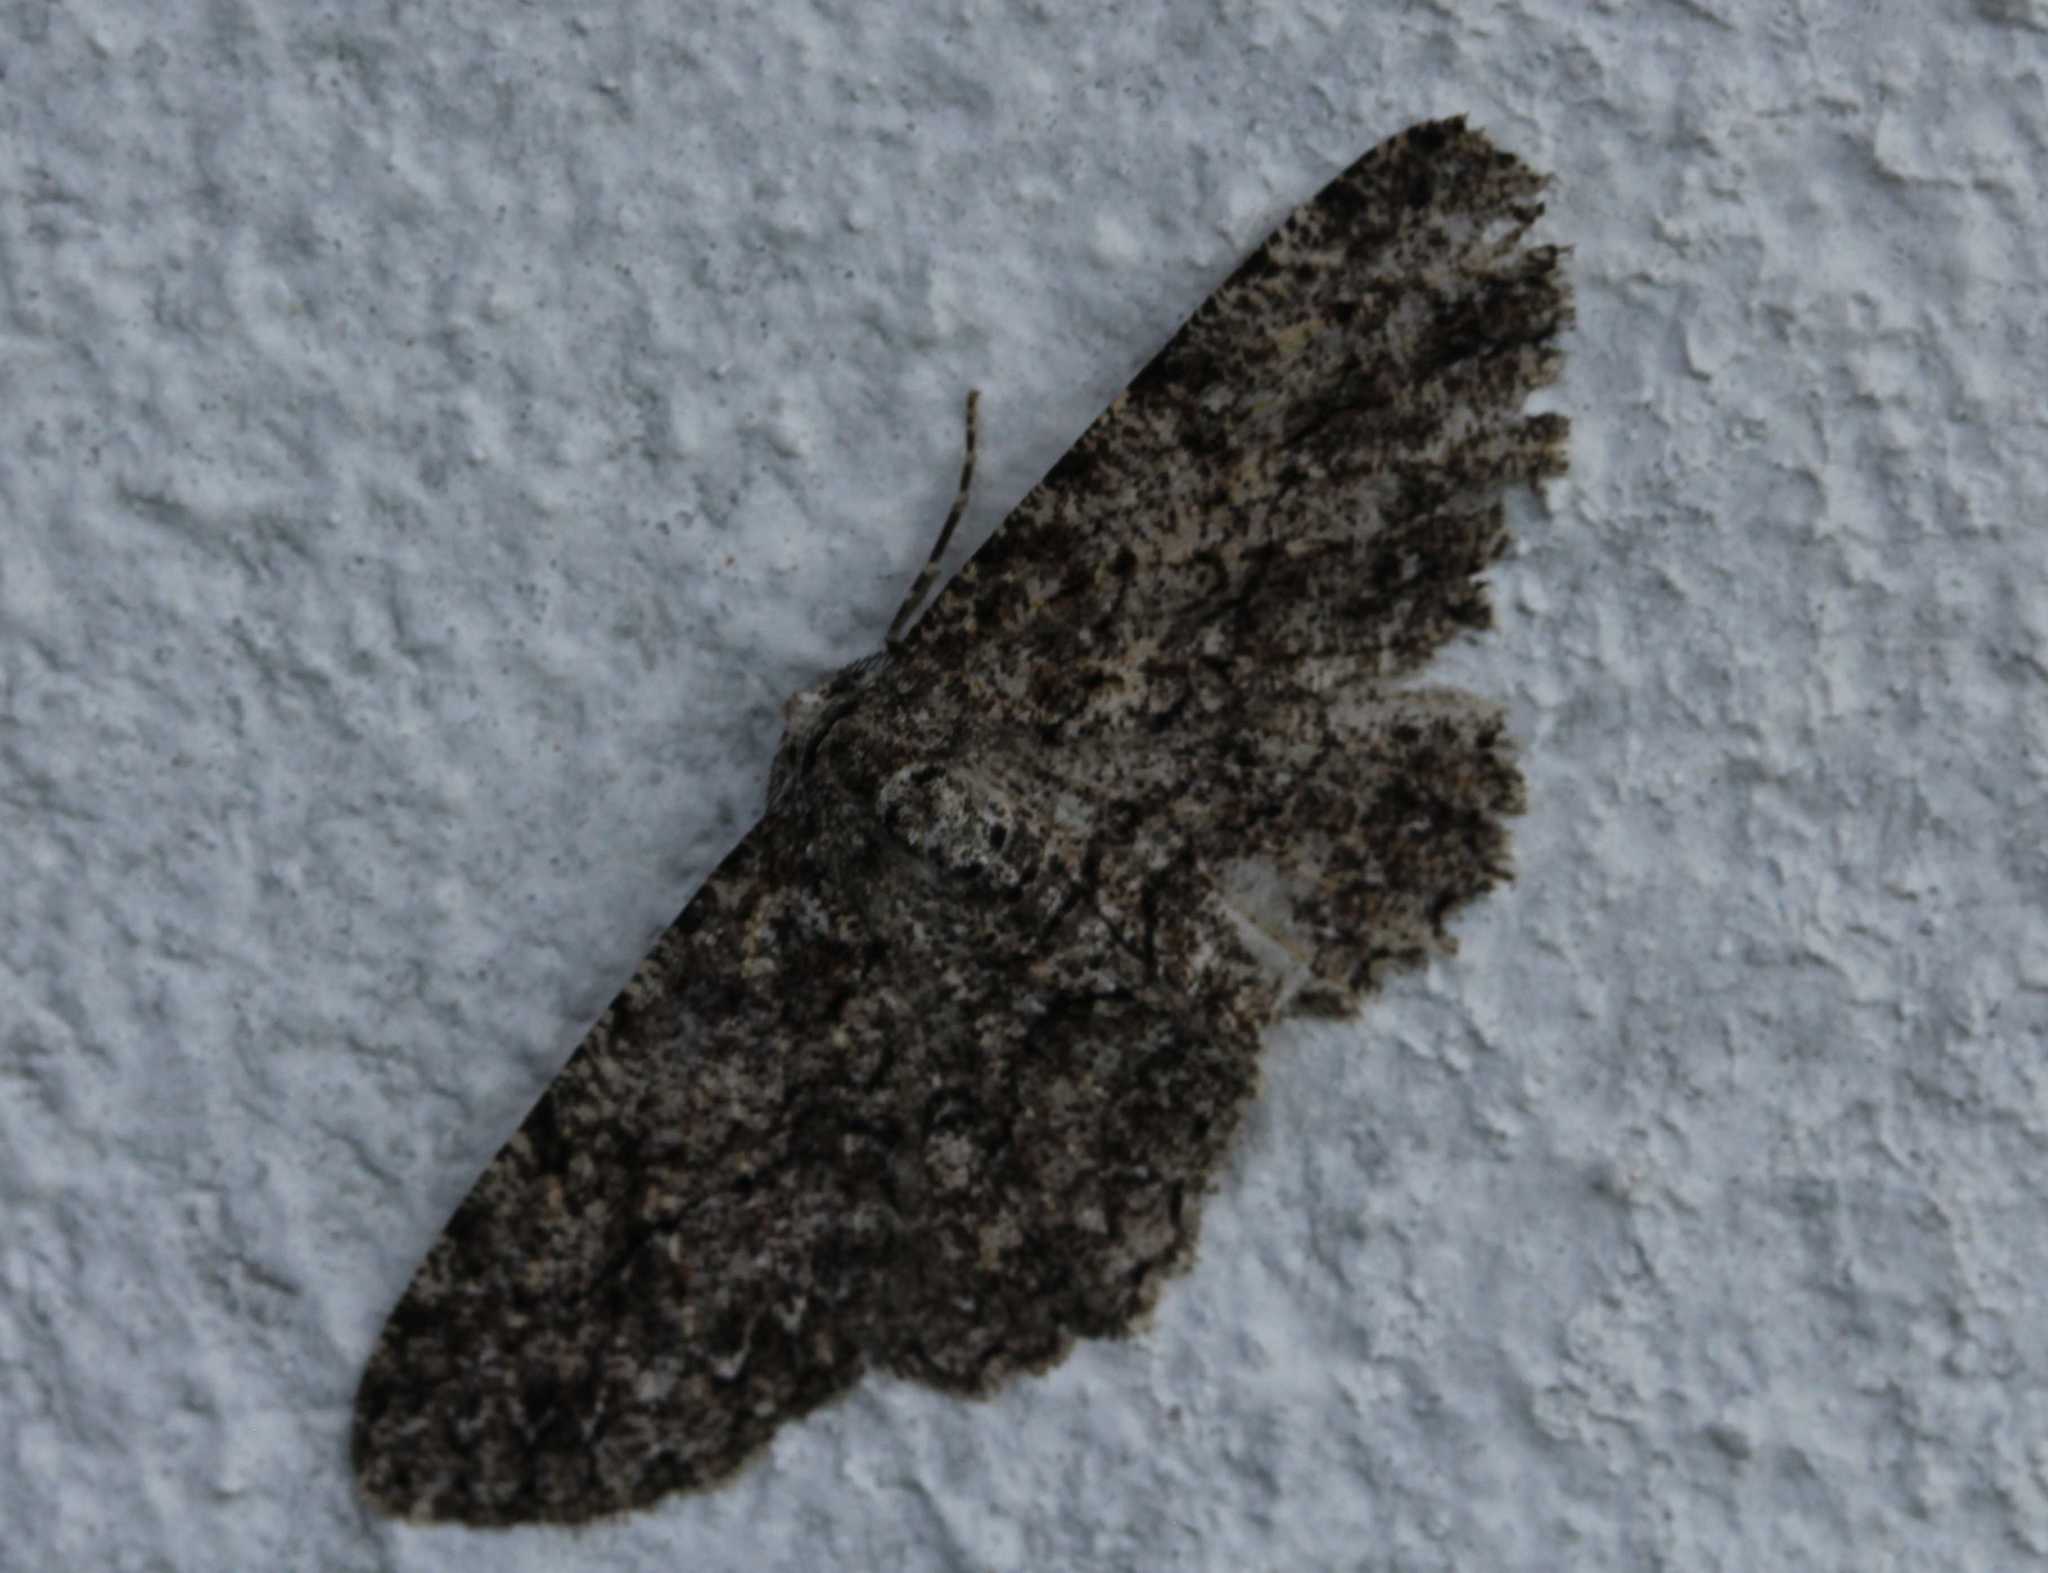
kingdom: Animalia
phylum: Arthropoda
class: Insecta
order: Lepidoptera
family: Geometridae
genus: Hypomecis
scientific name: Hypomecis
